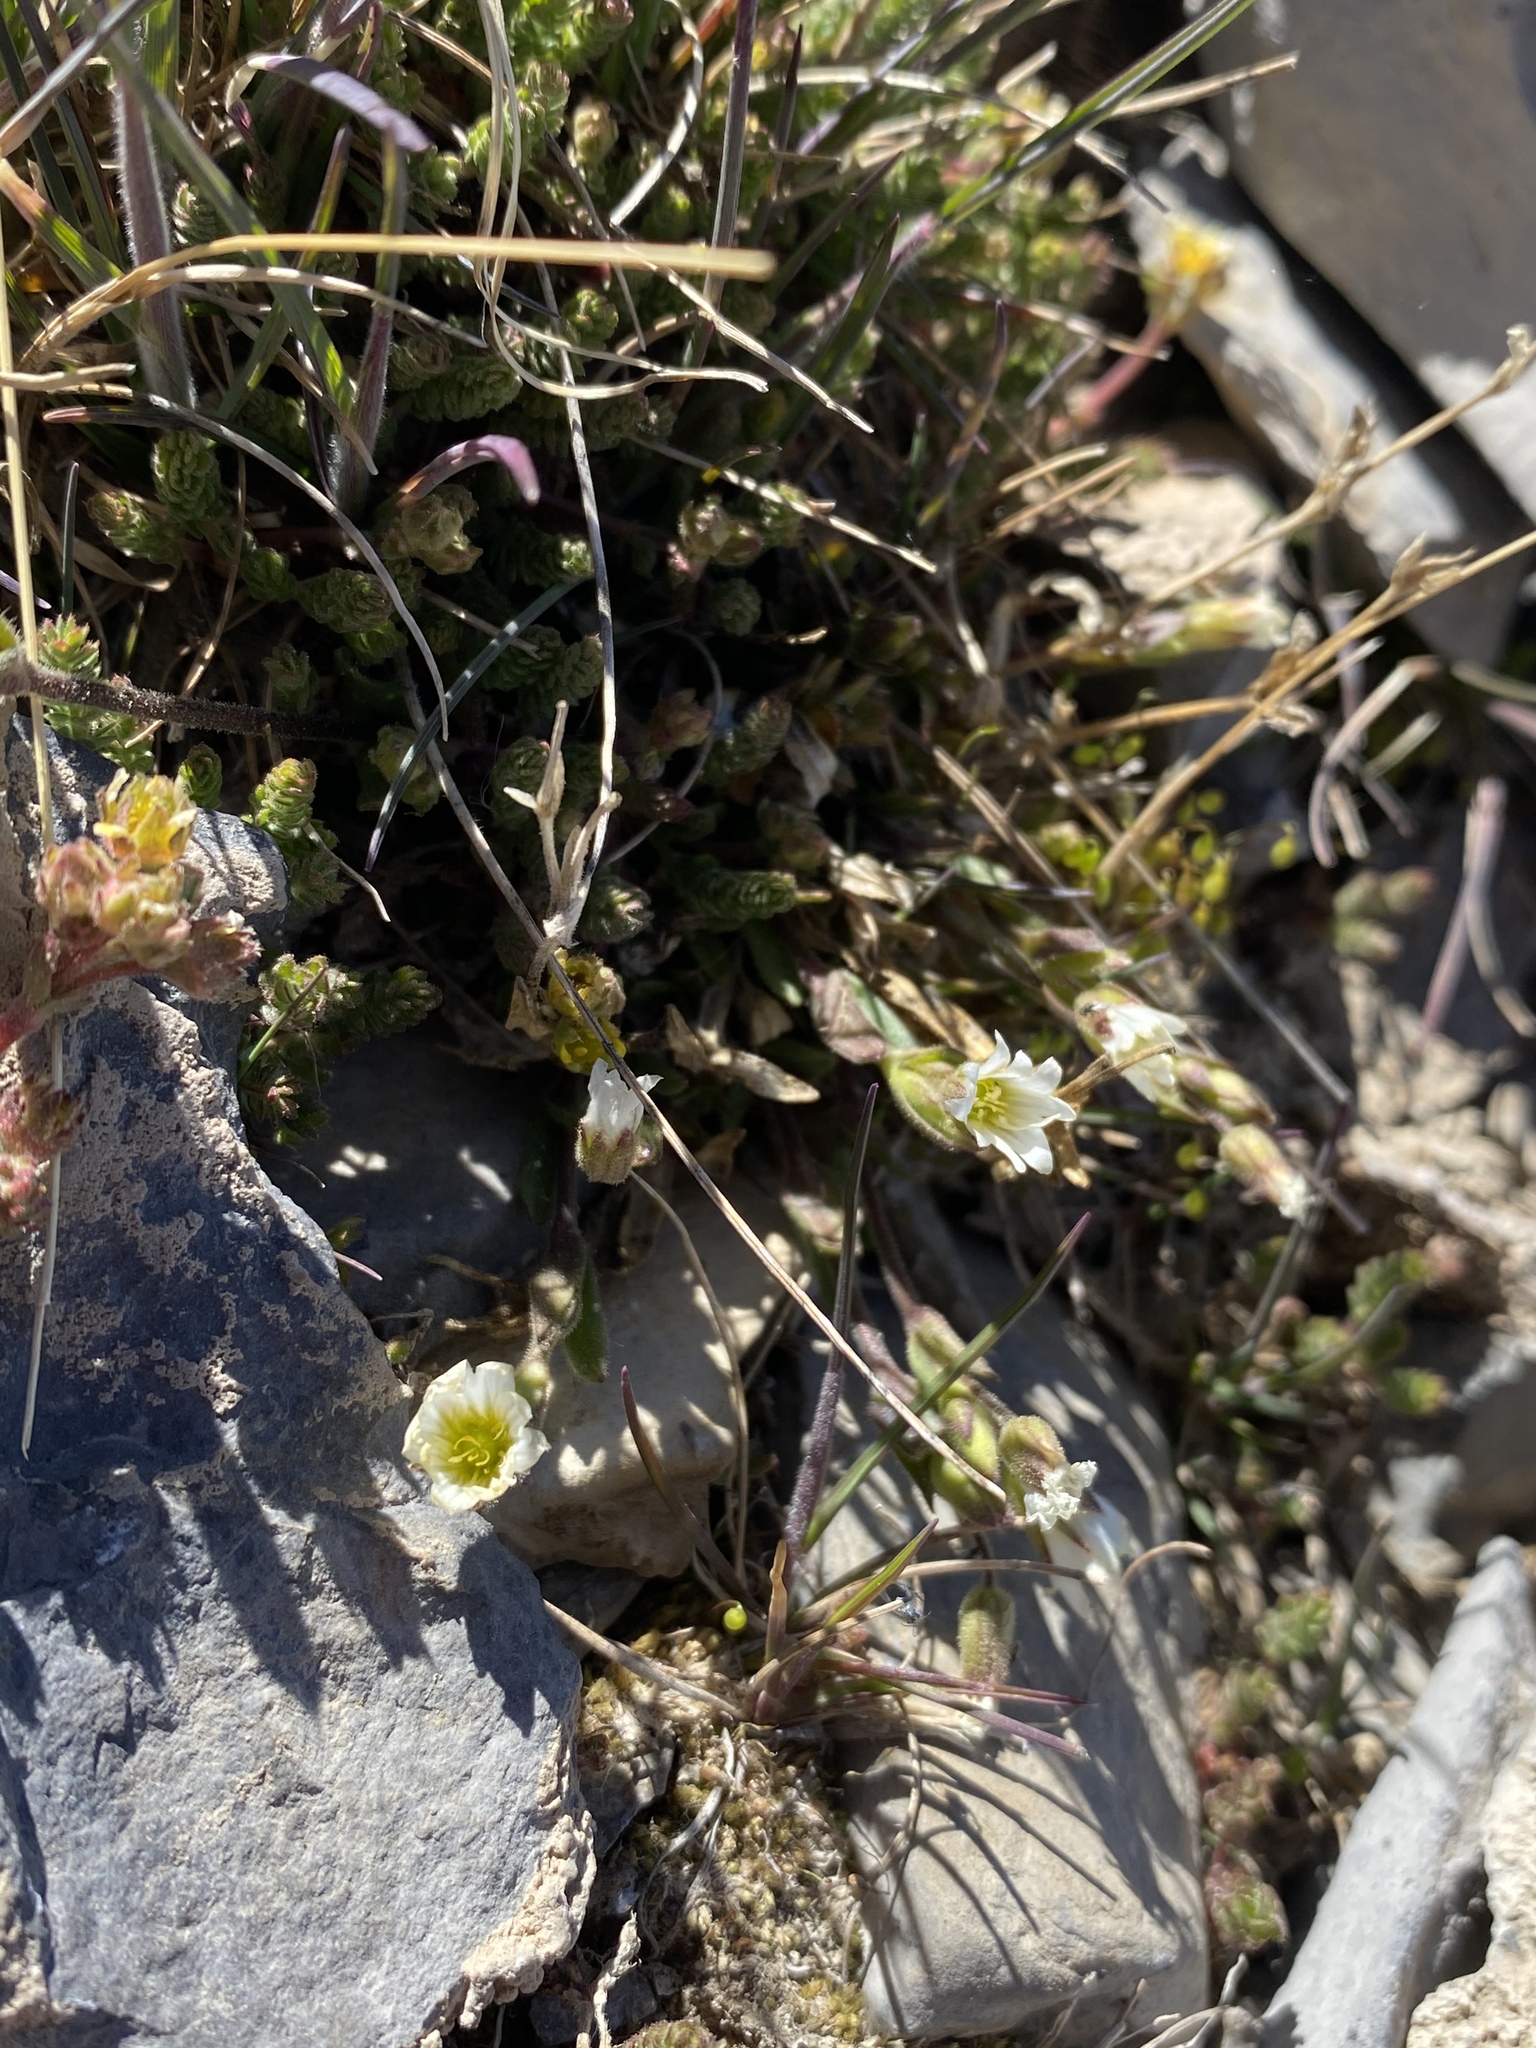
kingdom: Plantae
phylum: Tracheophyta
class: Magnoliopsida
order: Caryophyllales
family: Caryophyllaceae
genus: Cerastium
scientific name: Cerastium beeringianum
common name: Bering mouse-ear chickweed
